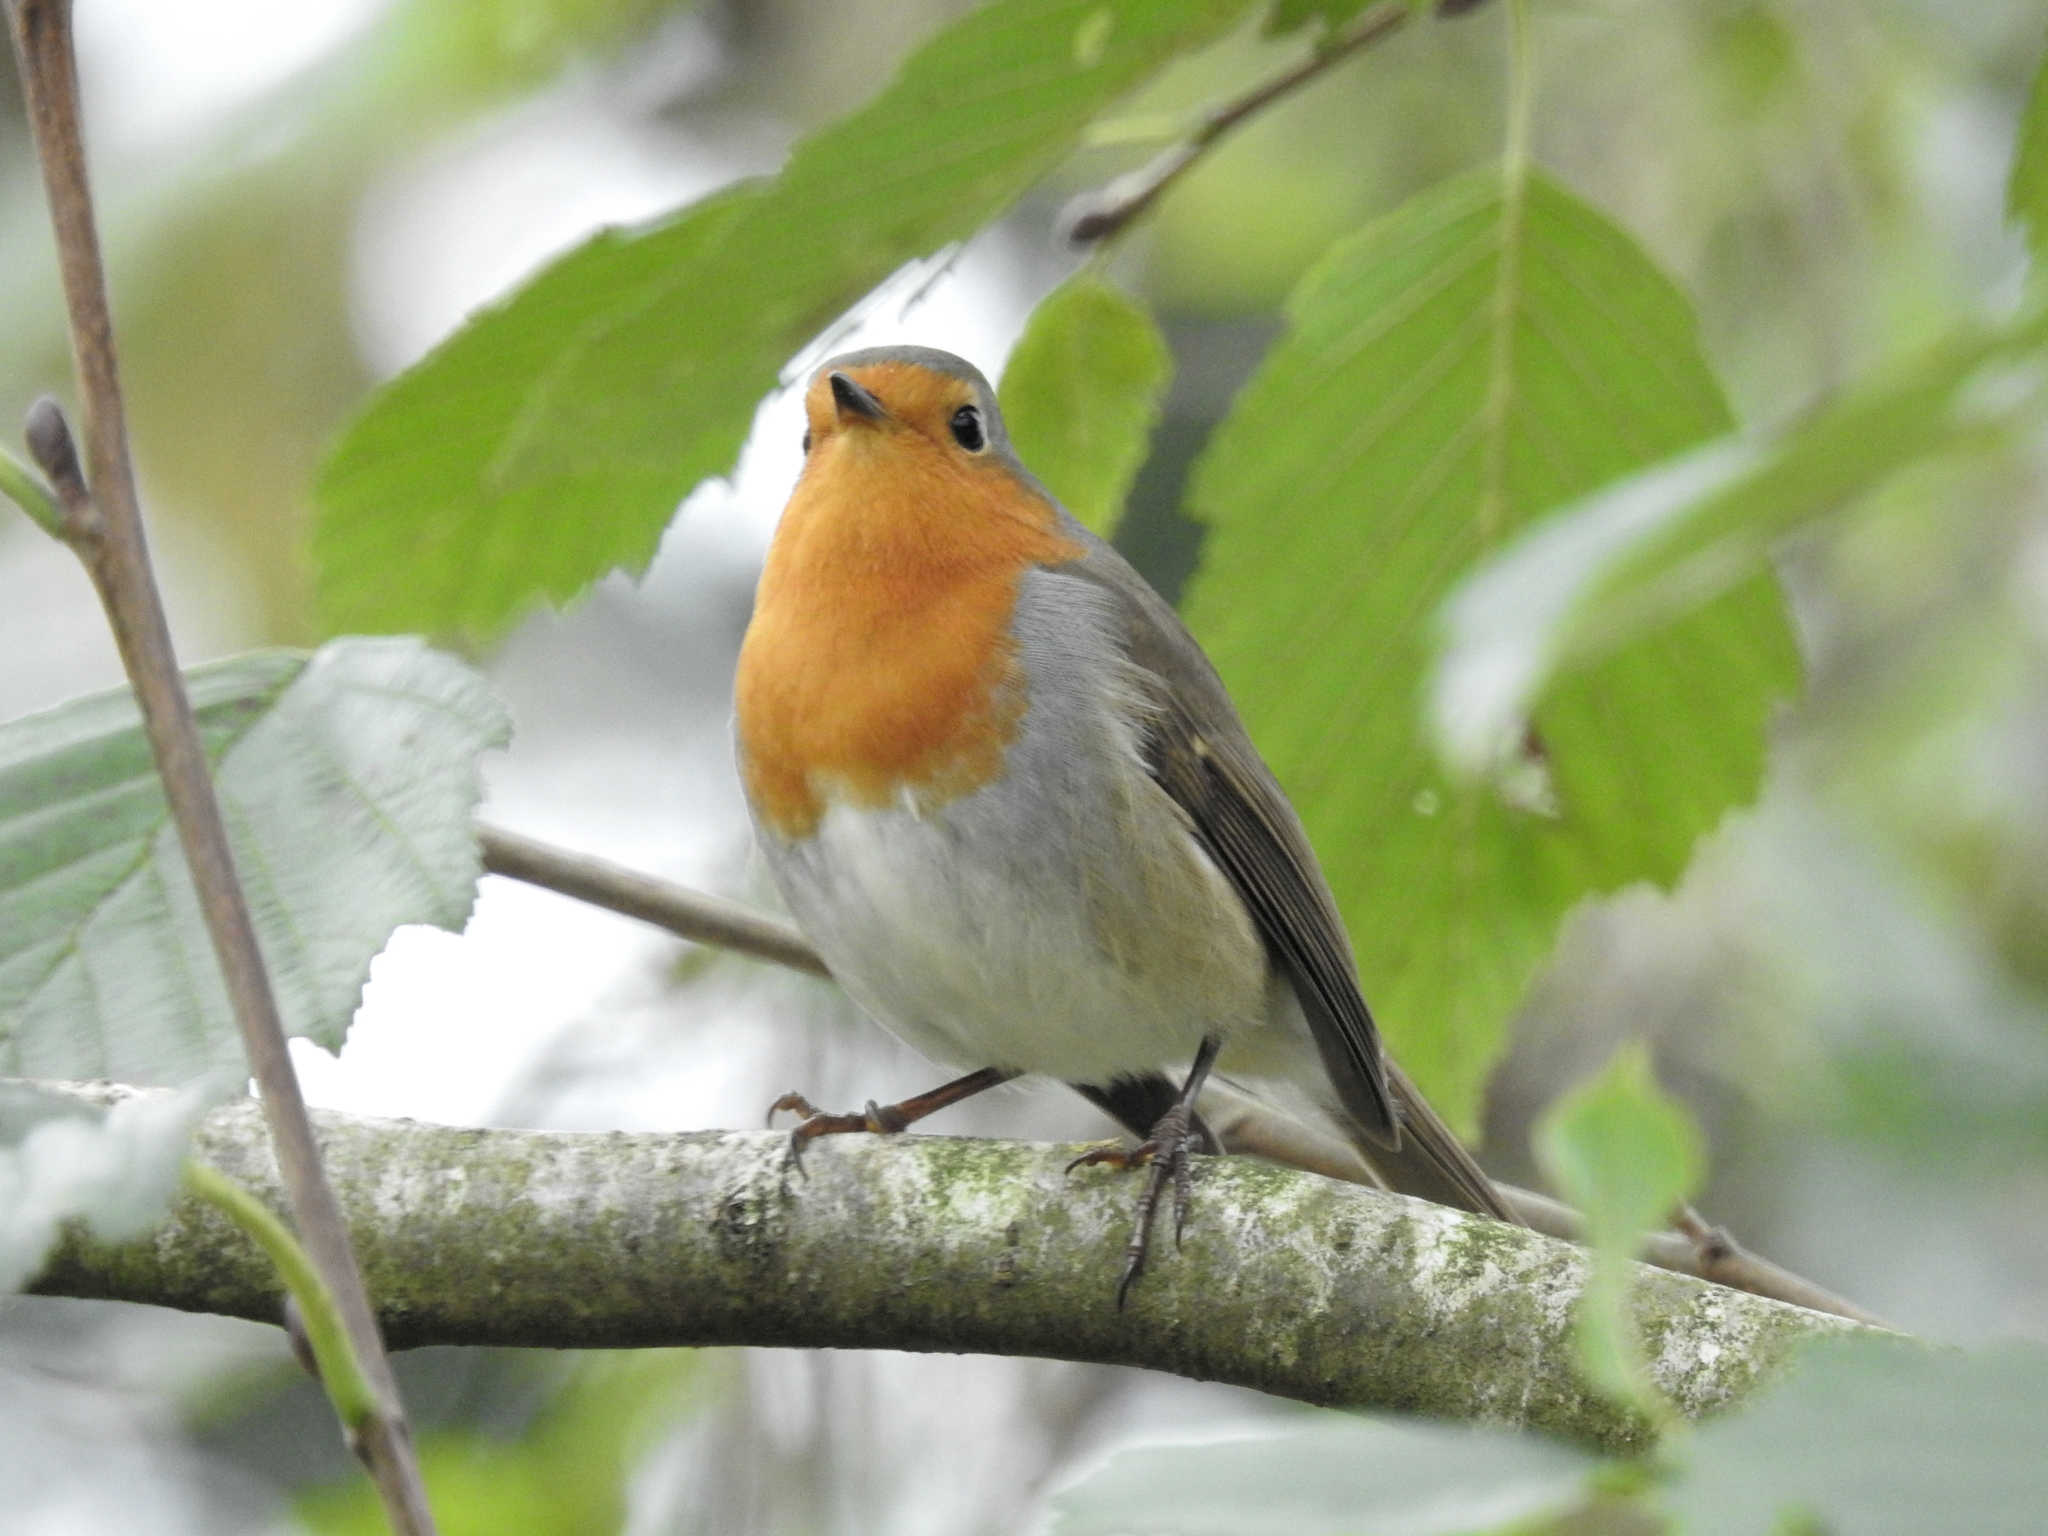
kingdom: Animalia
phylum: Chordata
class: Aves
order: Passeriformes
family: Muscicapidae
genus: Erithacus
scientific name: Erithacus rubecula
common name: European robin
